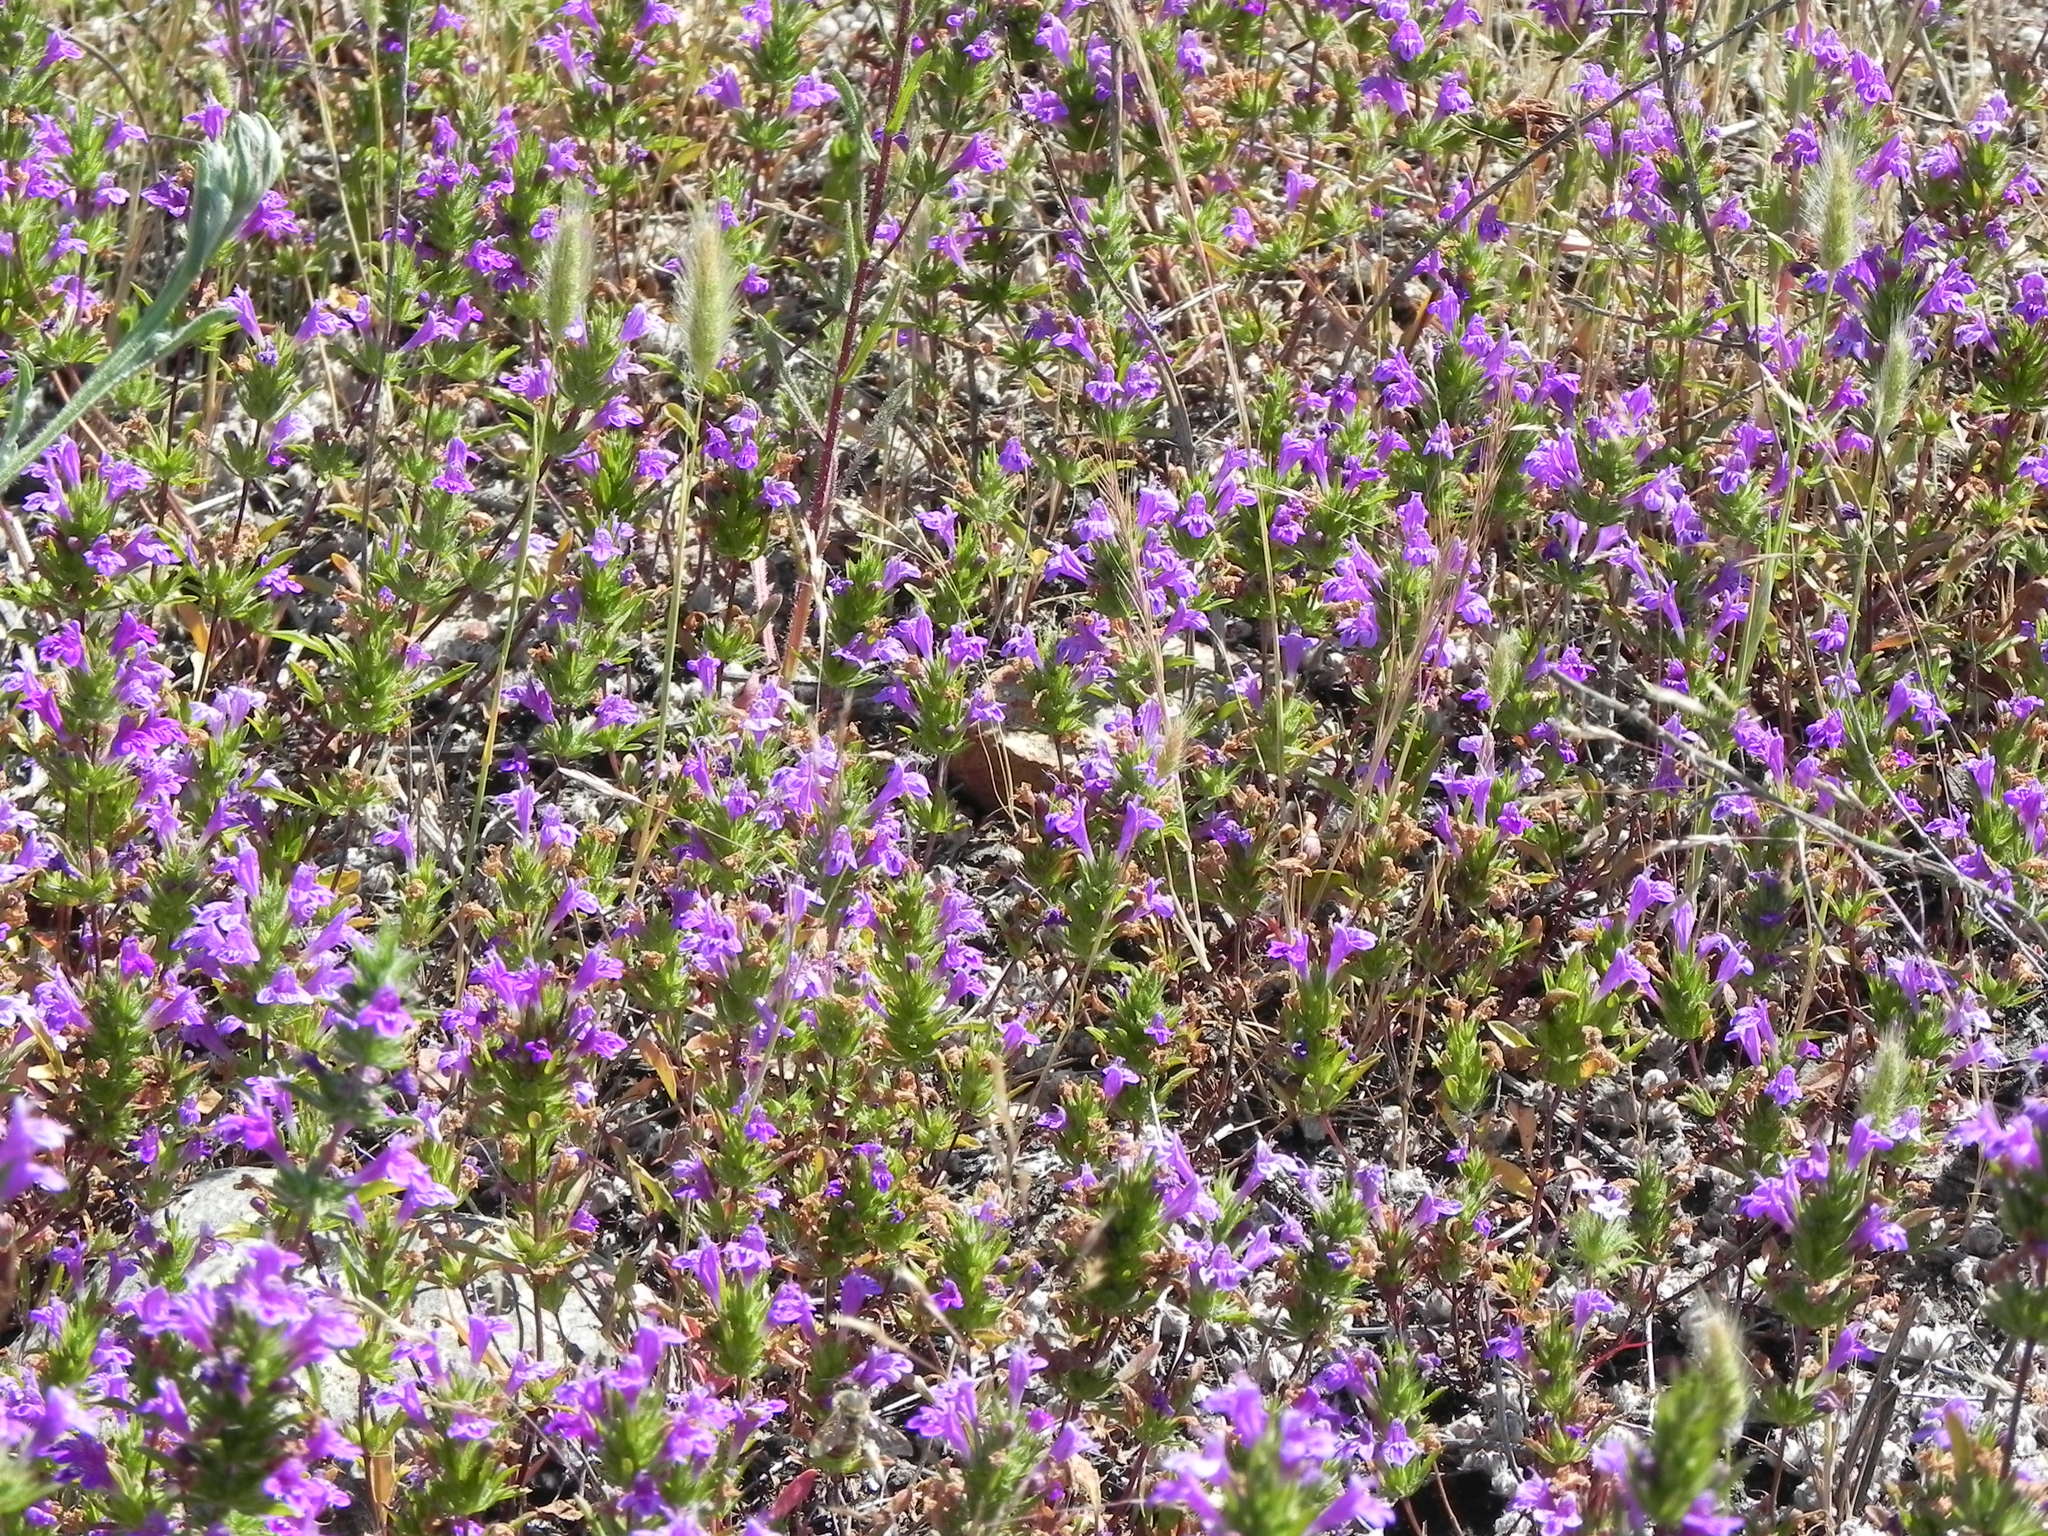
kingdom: Plantae
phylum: Tracheophyta
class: Magnoliopsida
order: Lamiales
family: Lamiaceae
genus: Pogogyne
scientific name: Pogogyne nudiuscula
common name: Otay mesa-mint
